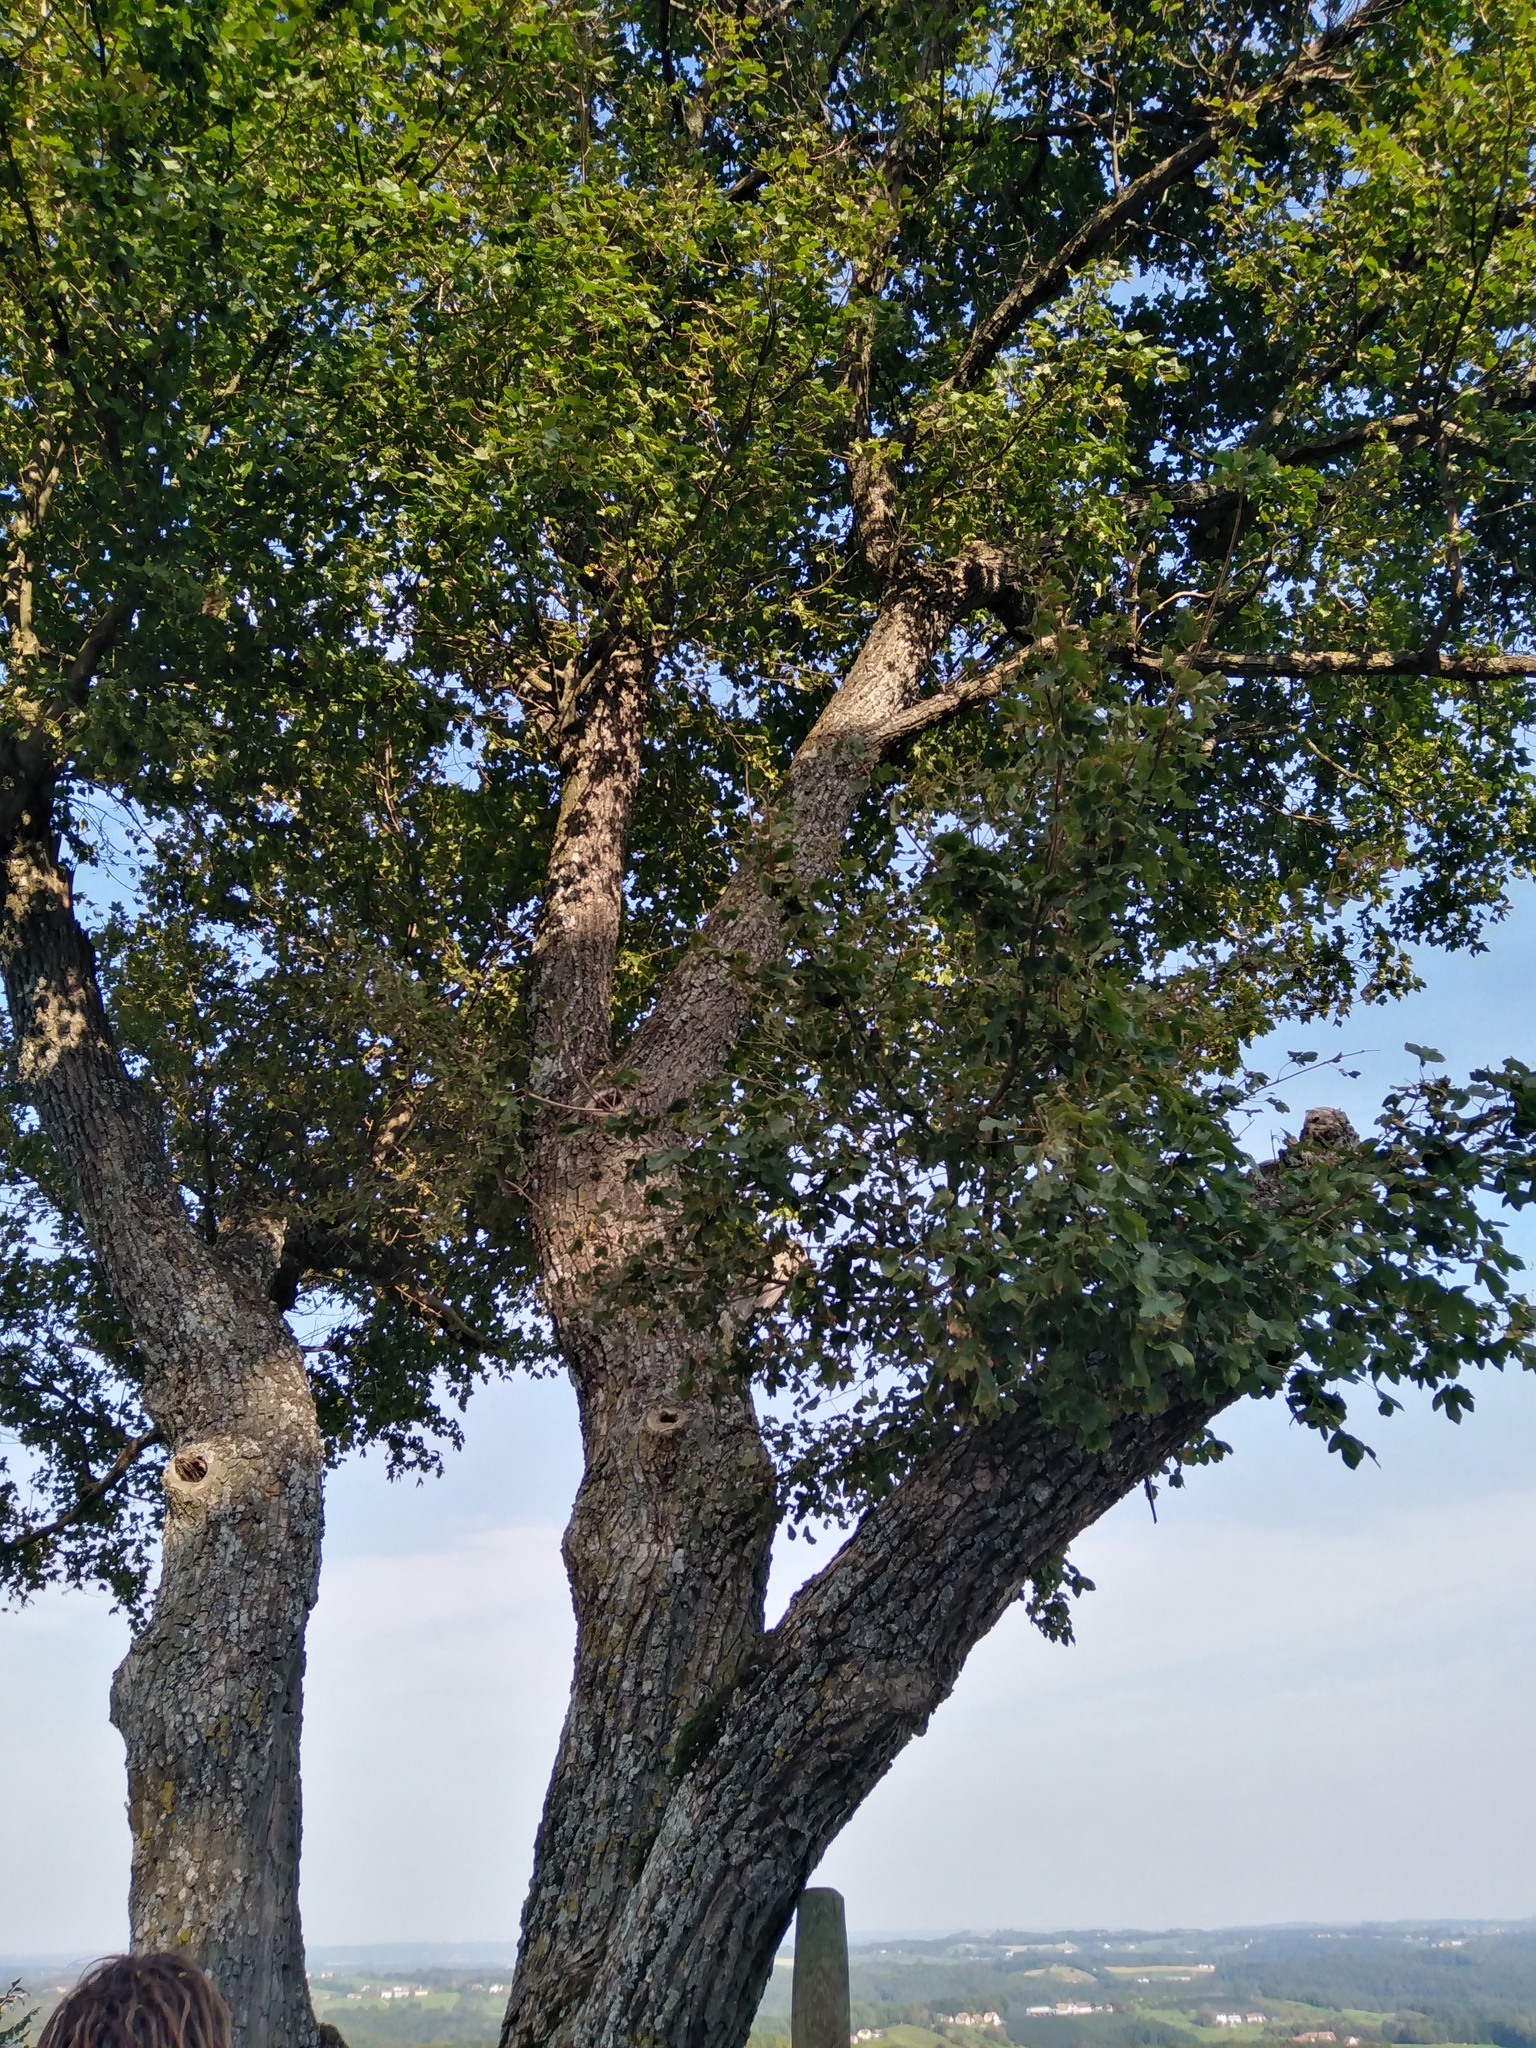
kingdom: Plantae
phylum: Tracheophyta
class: Magnoliopsida
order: Sapindales
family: Sapindaceae
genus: Acer
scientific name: Acer campestre
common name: Field maple
